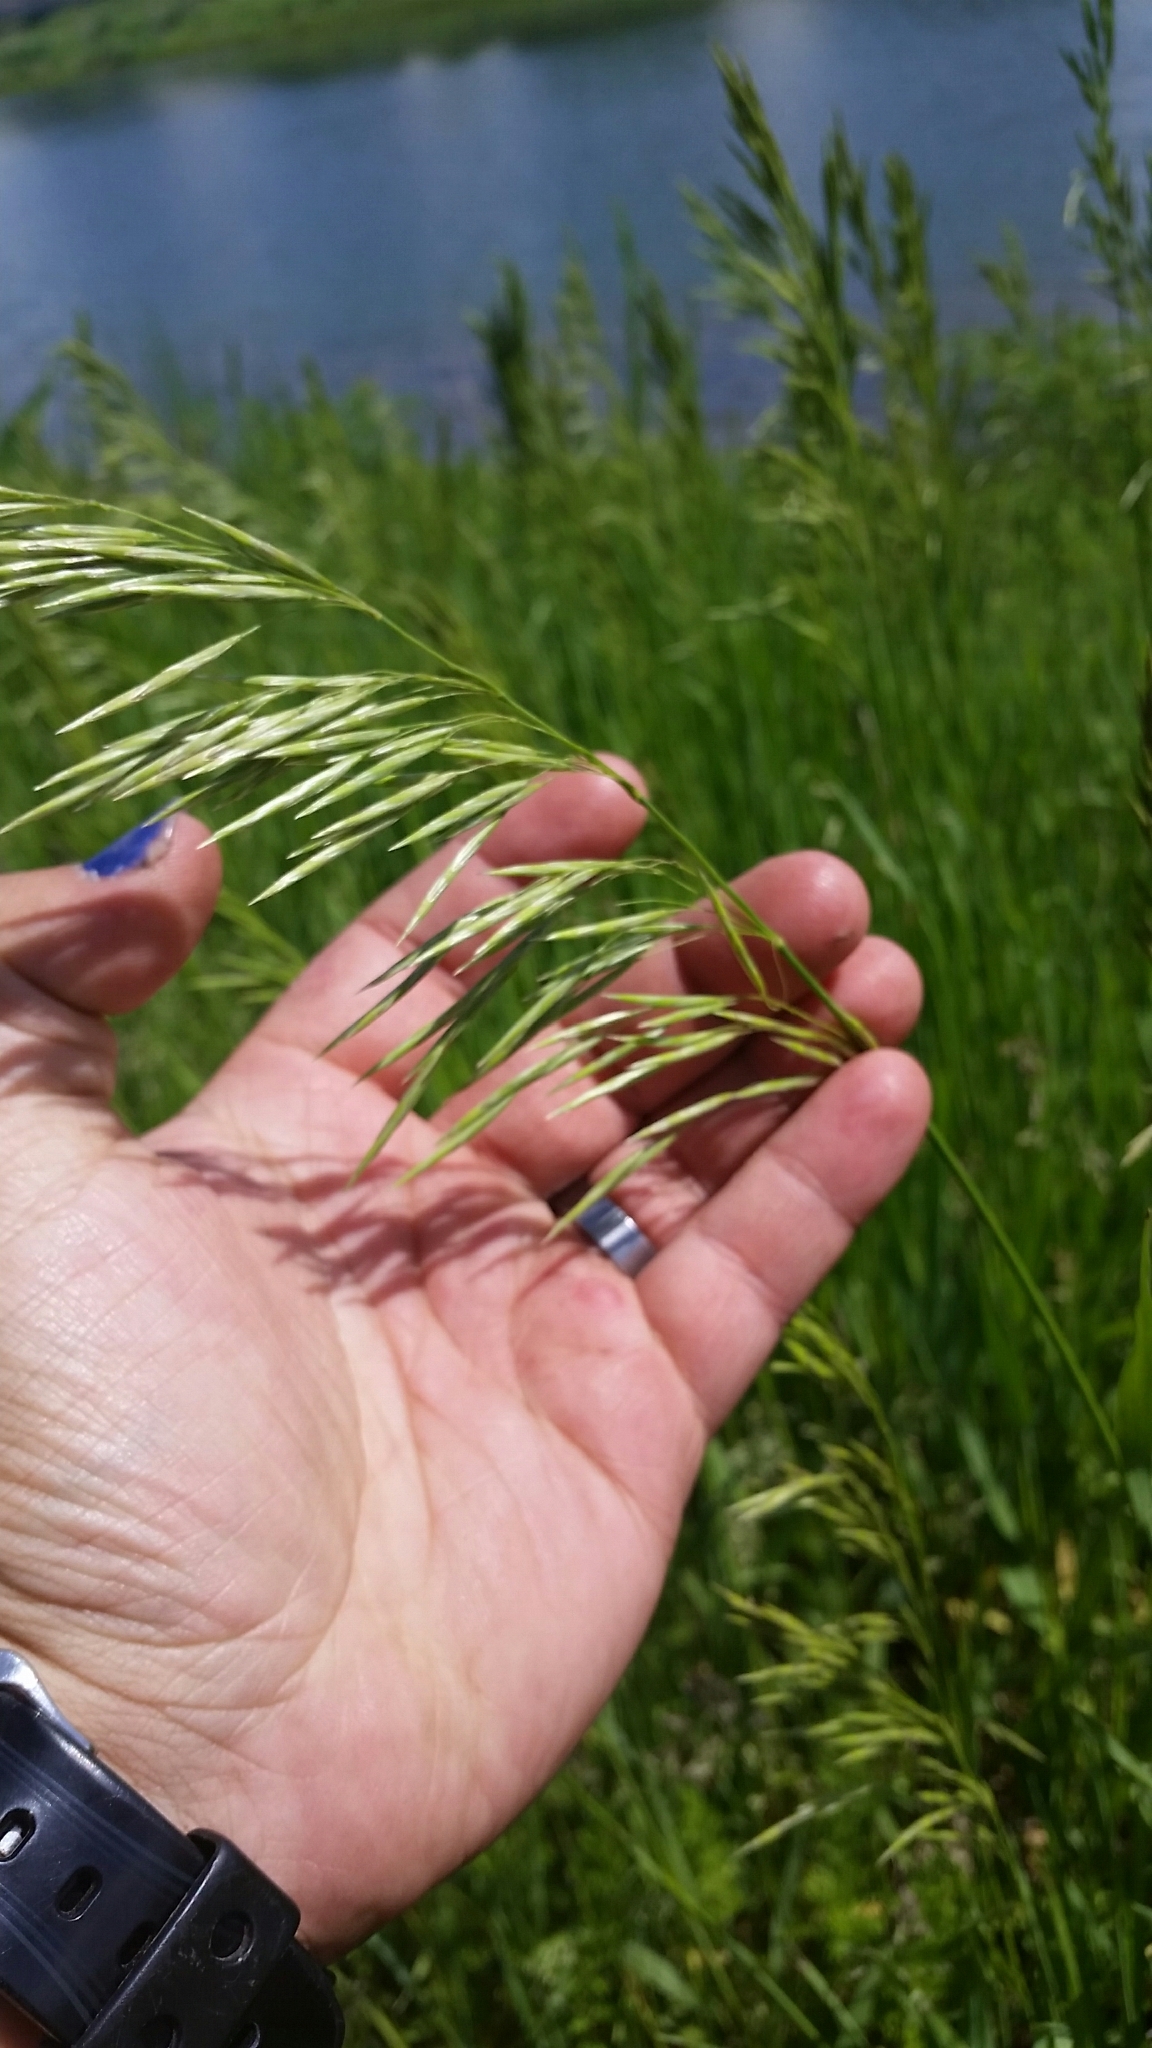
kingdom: Plantae
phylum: Tracheophyta
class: Liliopsida
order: Poales
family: Poaceae
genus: Bromus
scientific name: Bromus inermis
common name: Smooth brome
